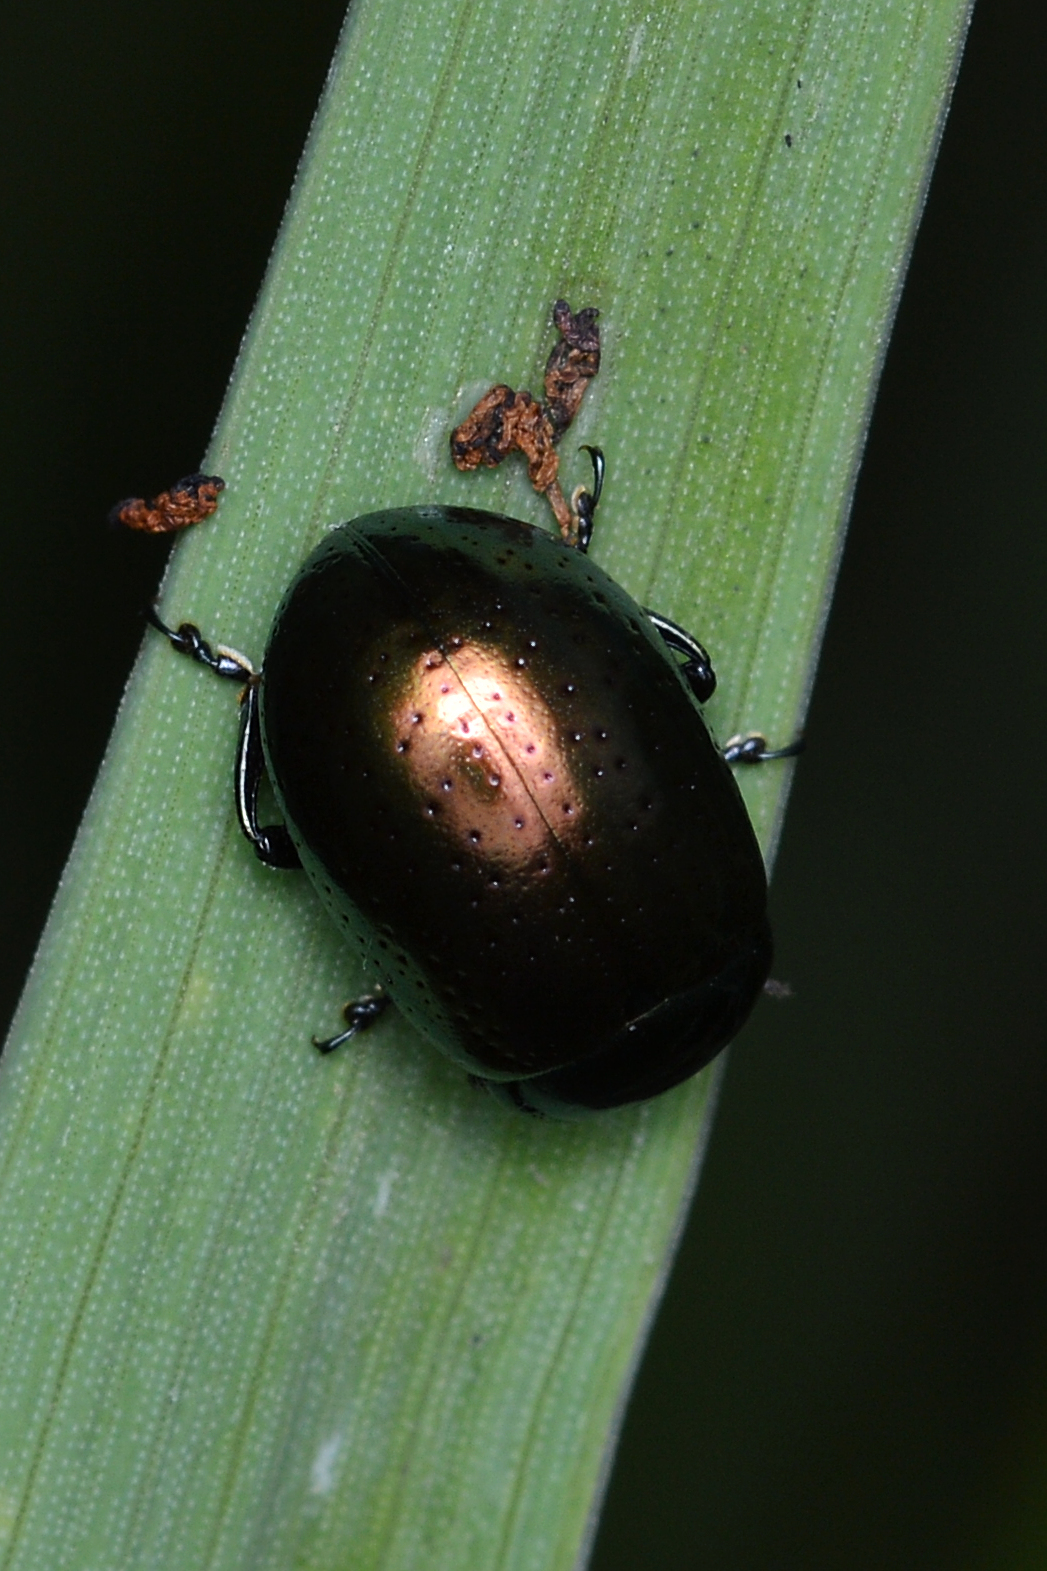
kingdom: Animalia
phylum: Arthropoda
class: Insecta
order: Coleoptera
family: Chrysomelidae
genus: Chrysolina
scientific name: Chrysolina hyperici
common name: St. johnswort beetle
